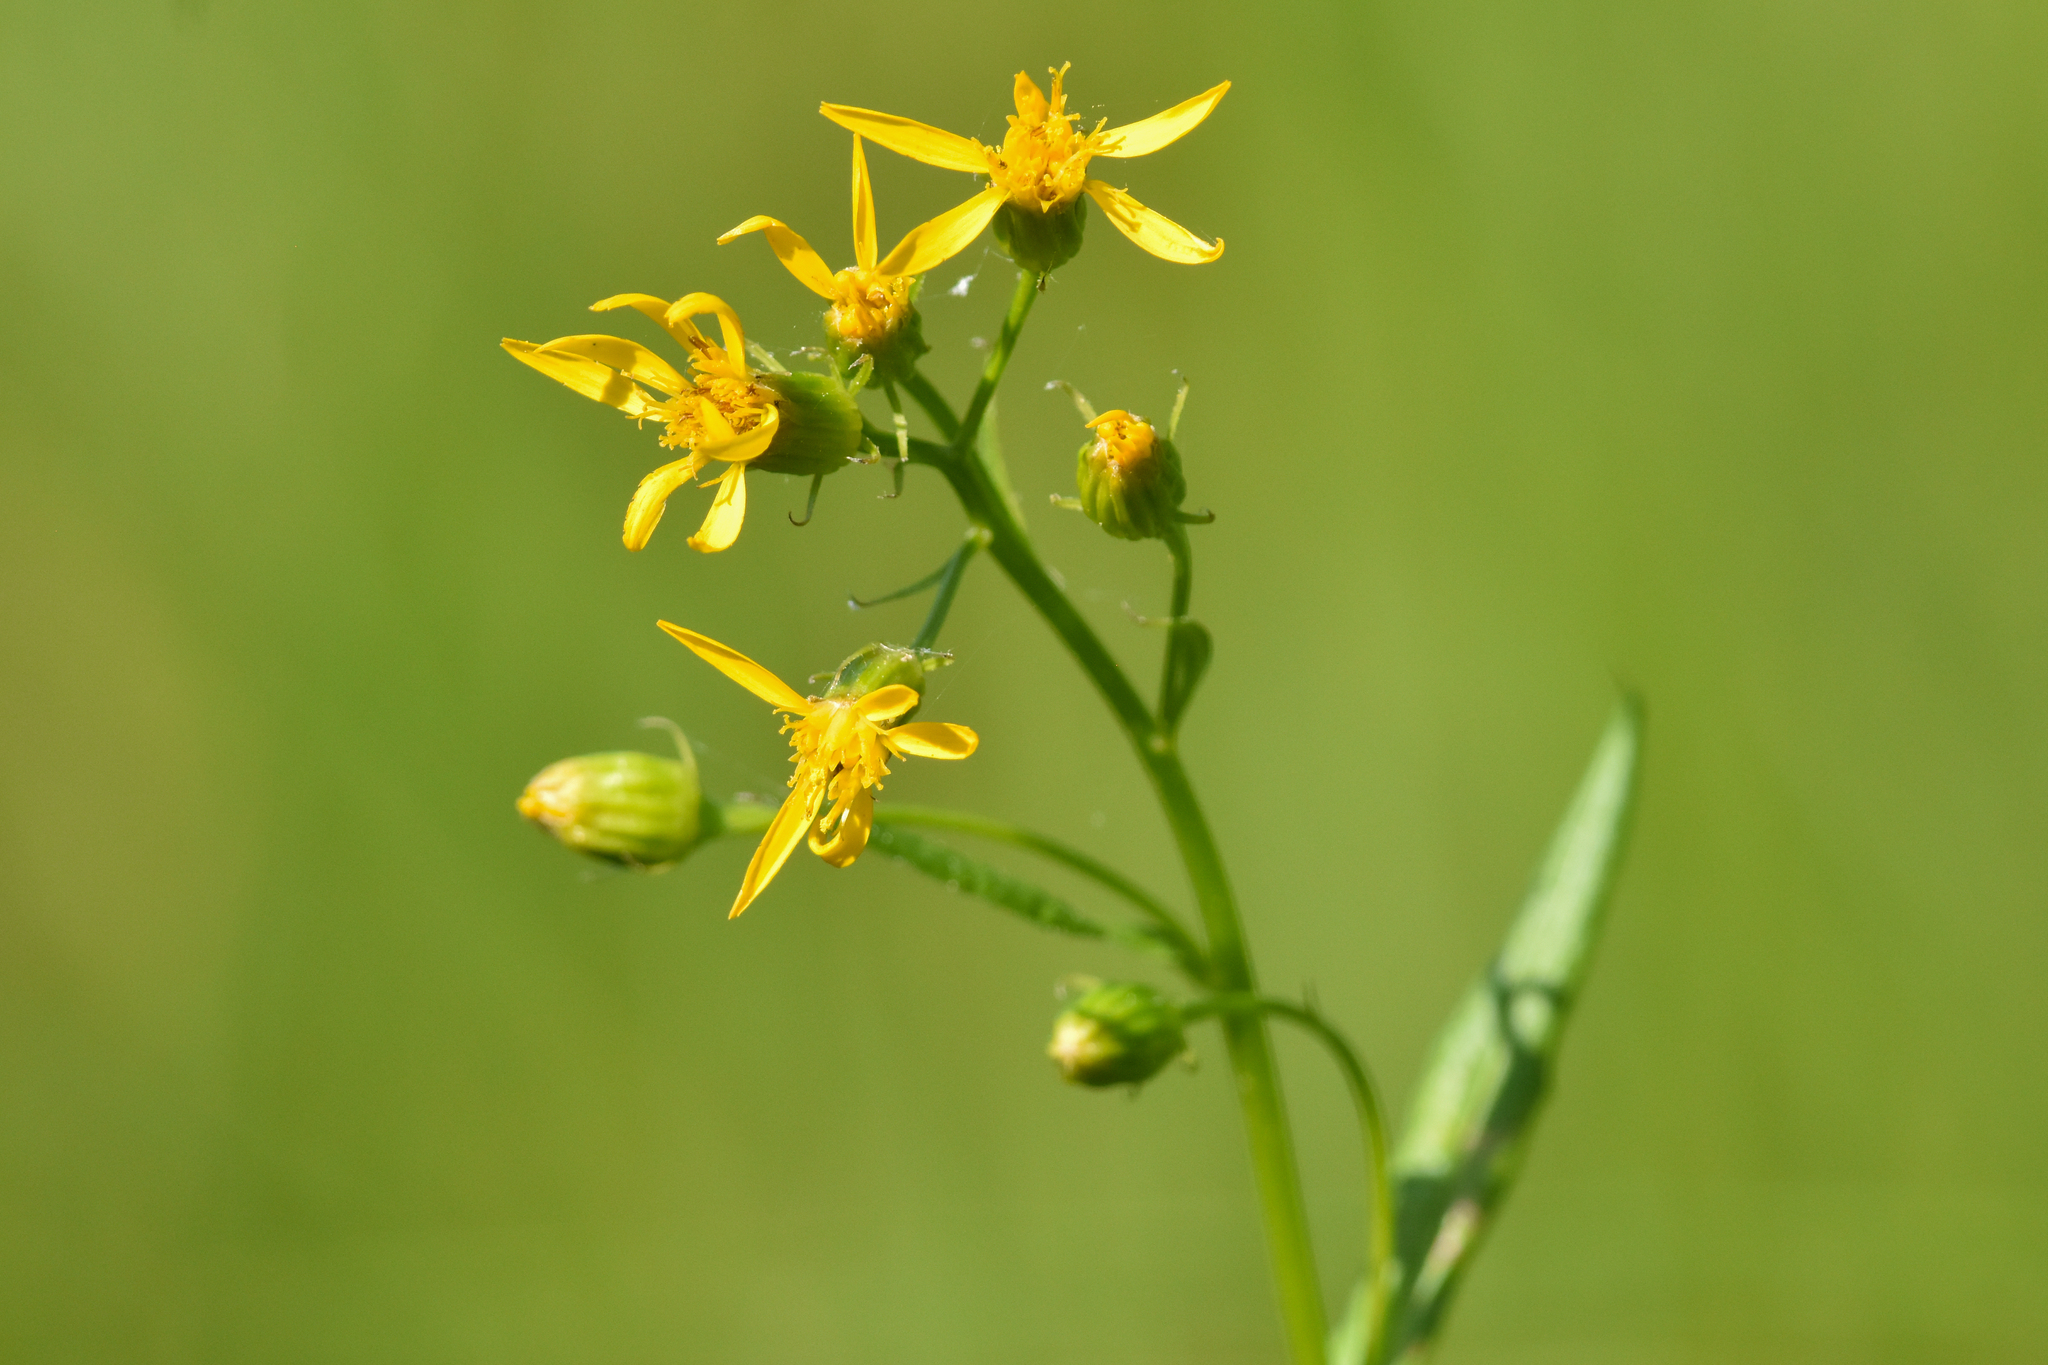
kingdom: Plantae
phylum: Tracheophyta
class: Magnoliopsida
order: Asterales
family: Asteraceae
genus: Senecio
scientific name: Senecio triangularis
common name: Arrowleaf butterweed
